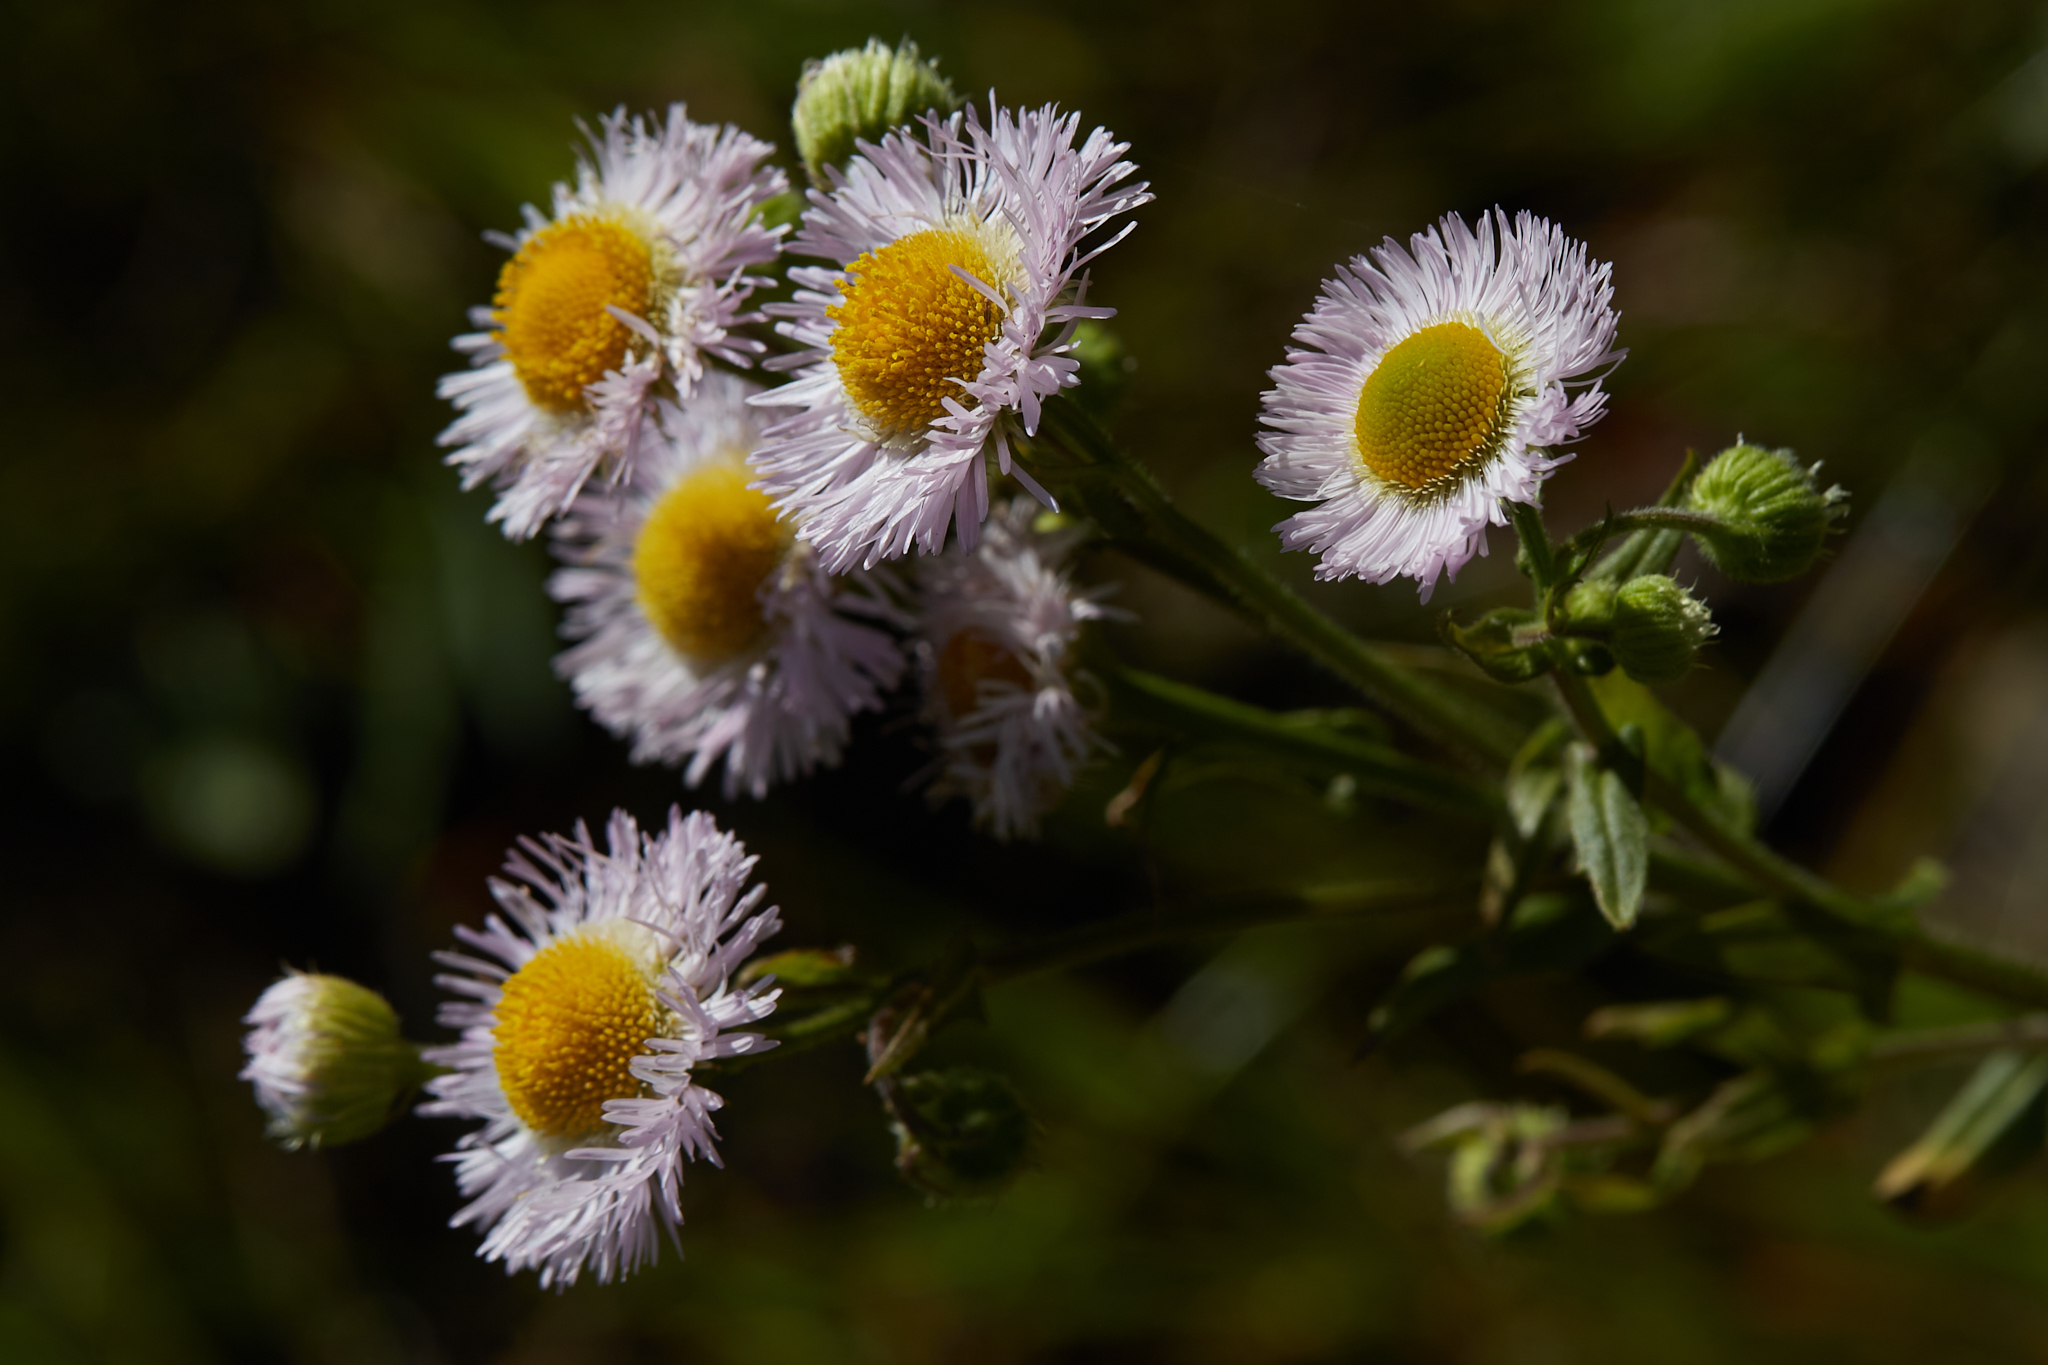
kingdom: Plantae
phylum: Tracheophyta
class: Magnoliopsida
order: Asterales
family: Asteraceae
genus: Erigeron
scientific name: Erigeron philadelphicus
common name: Robin's-plantain
